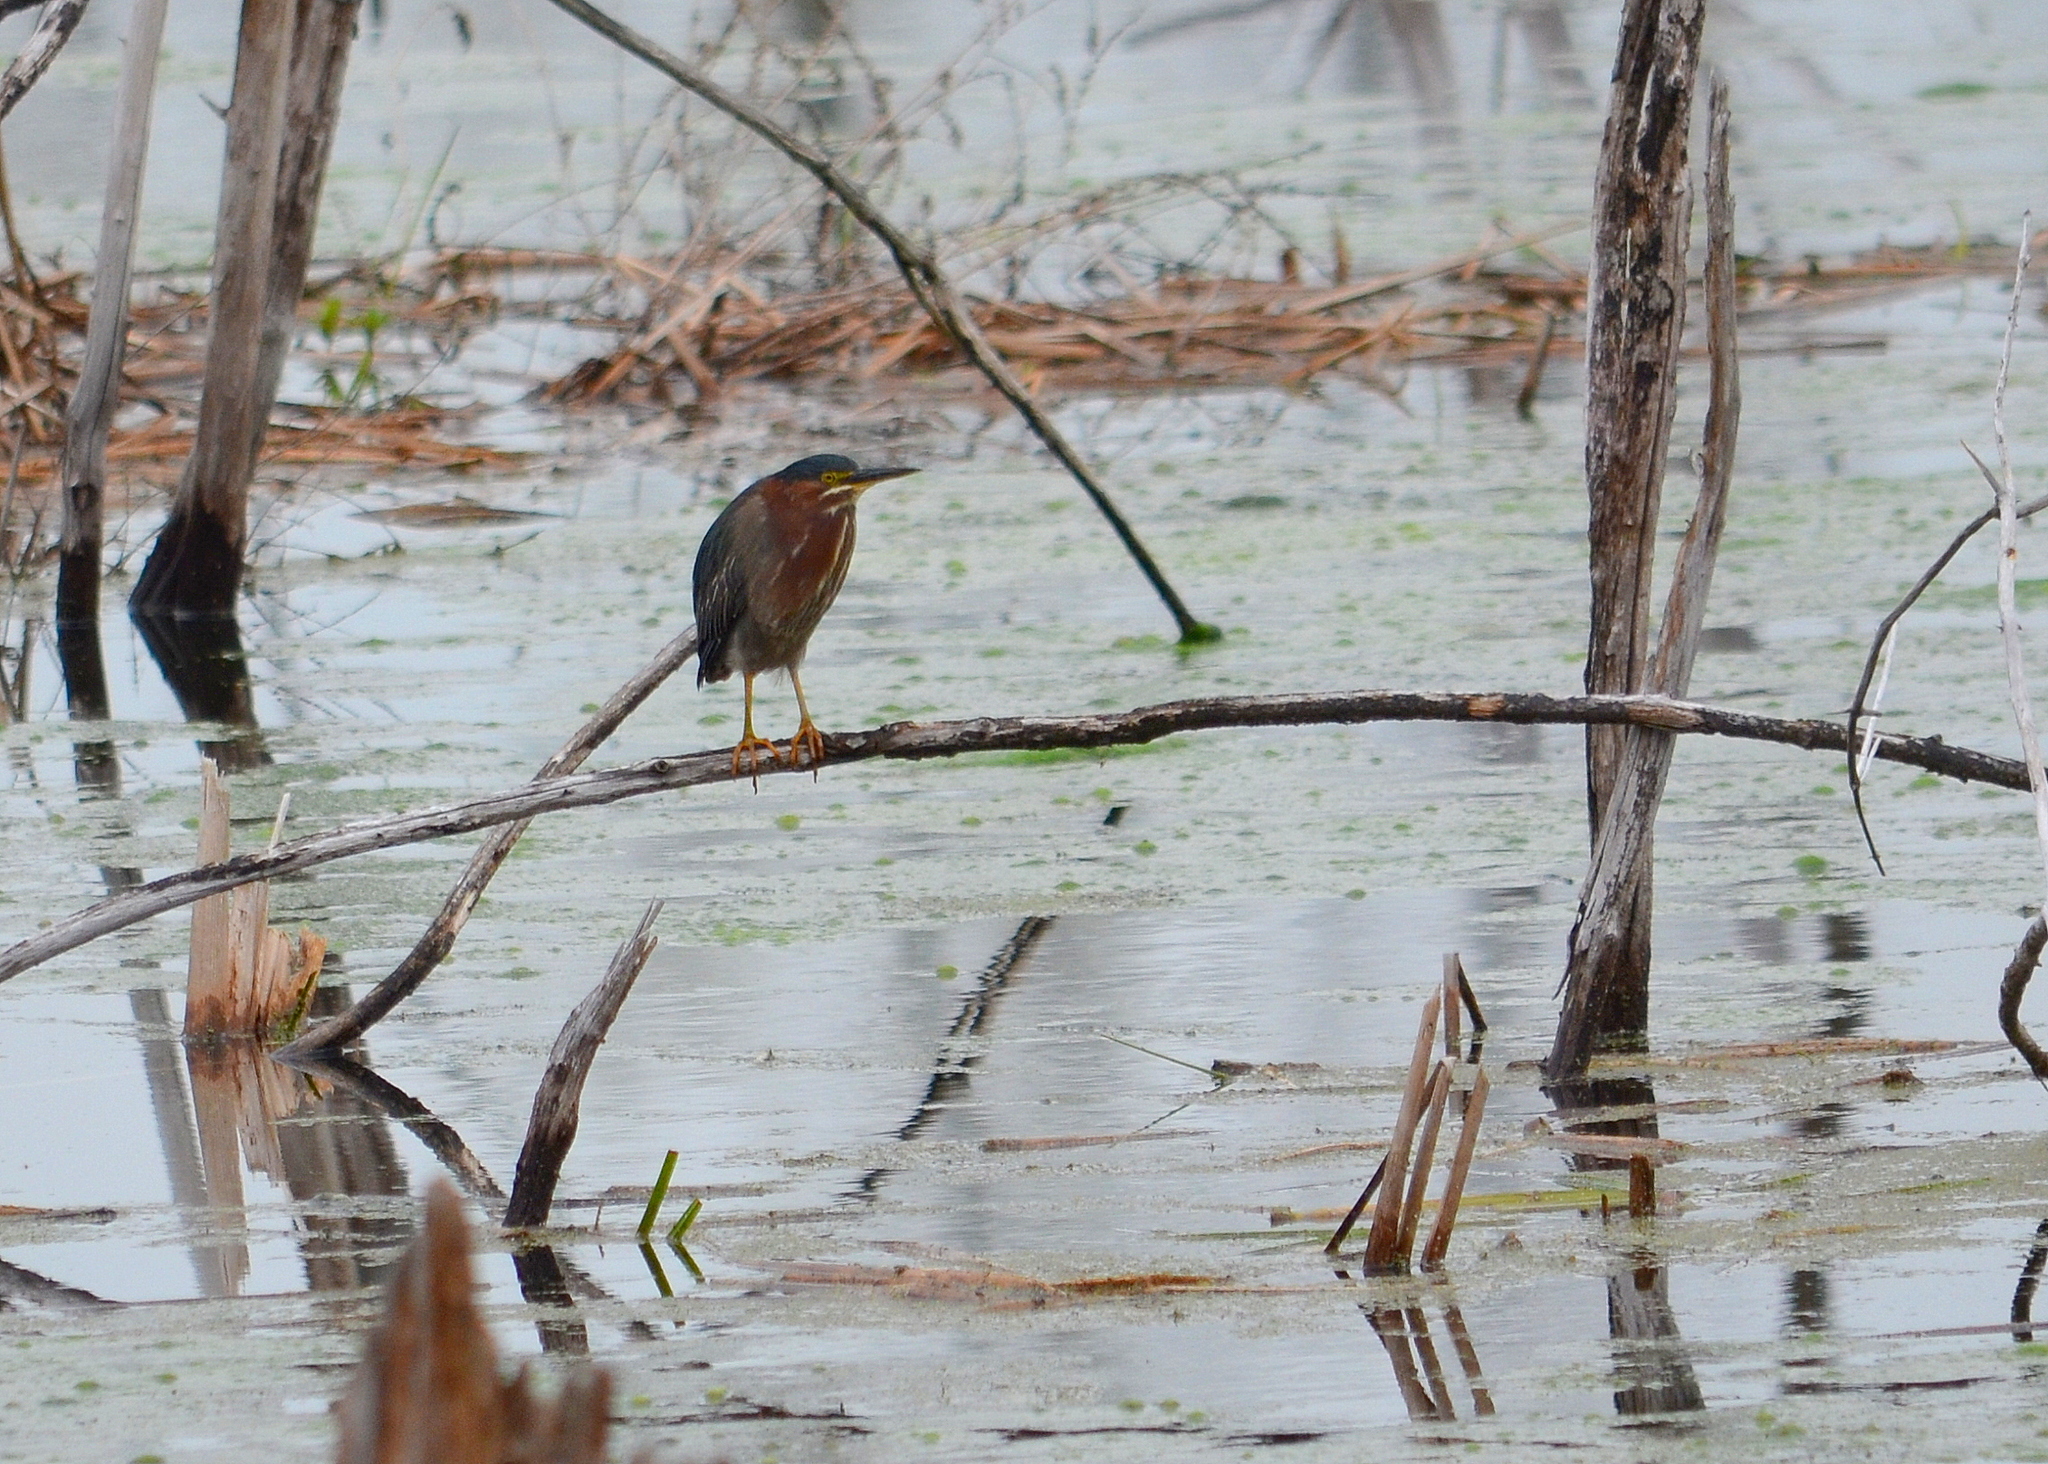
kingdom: Animalia
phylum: Chordata
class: Aves
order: Pelecaniformes
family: Ardeidae
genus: Butorides
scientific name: Butorides virescens
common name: Green heron
